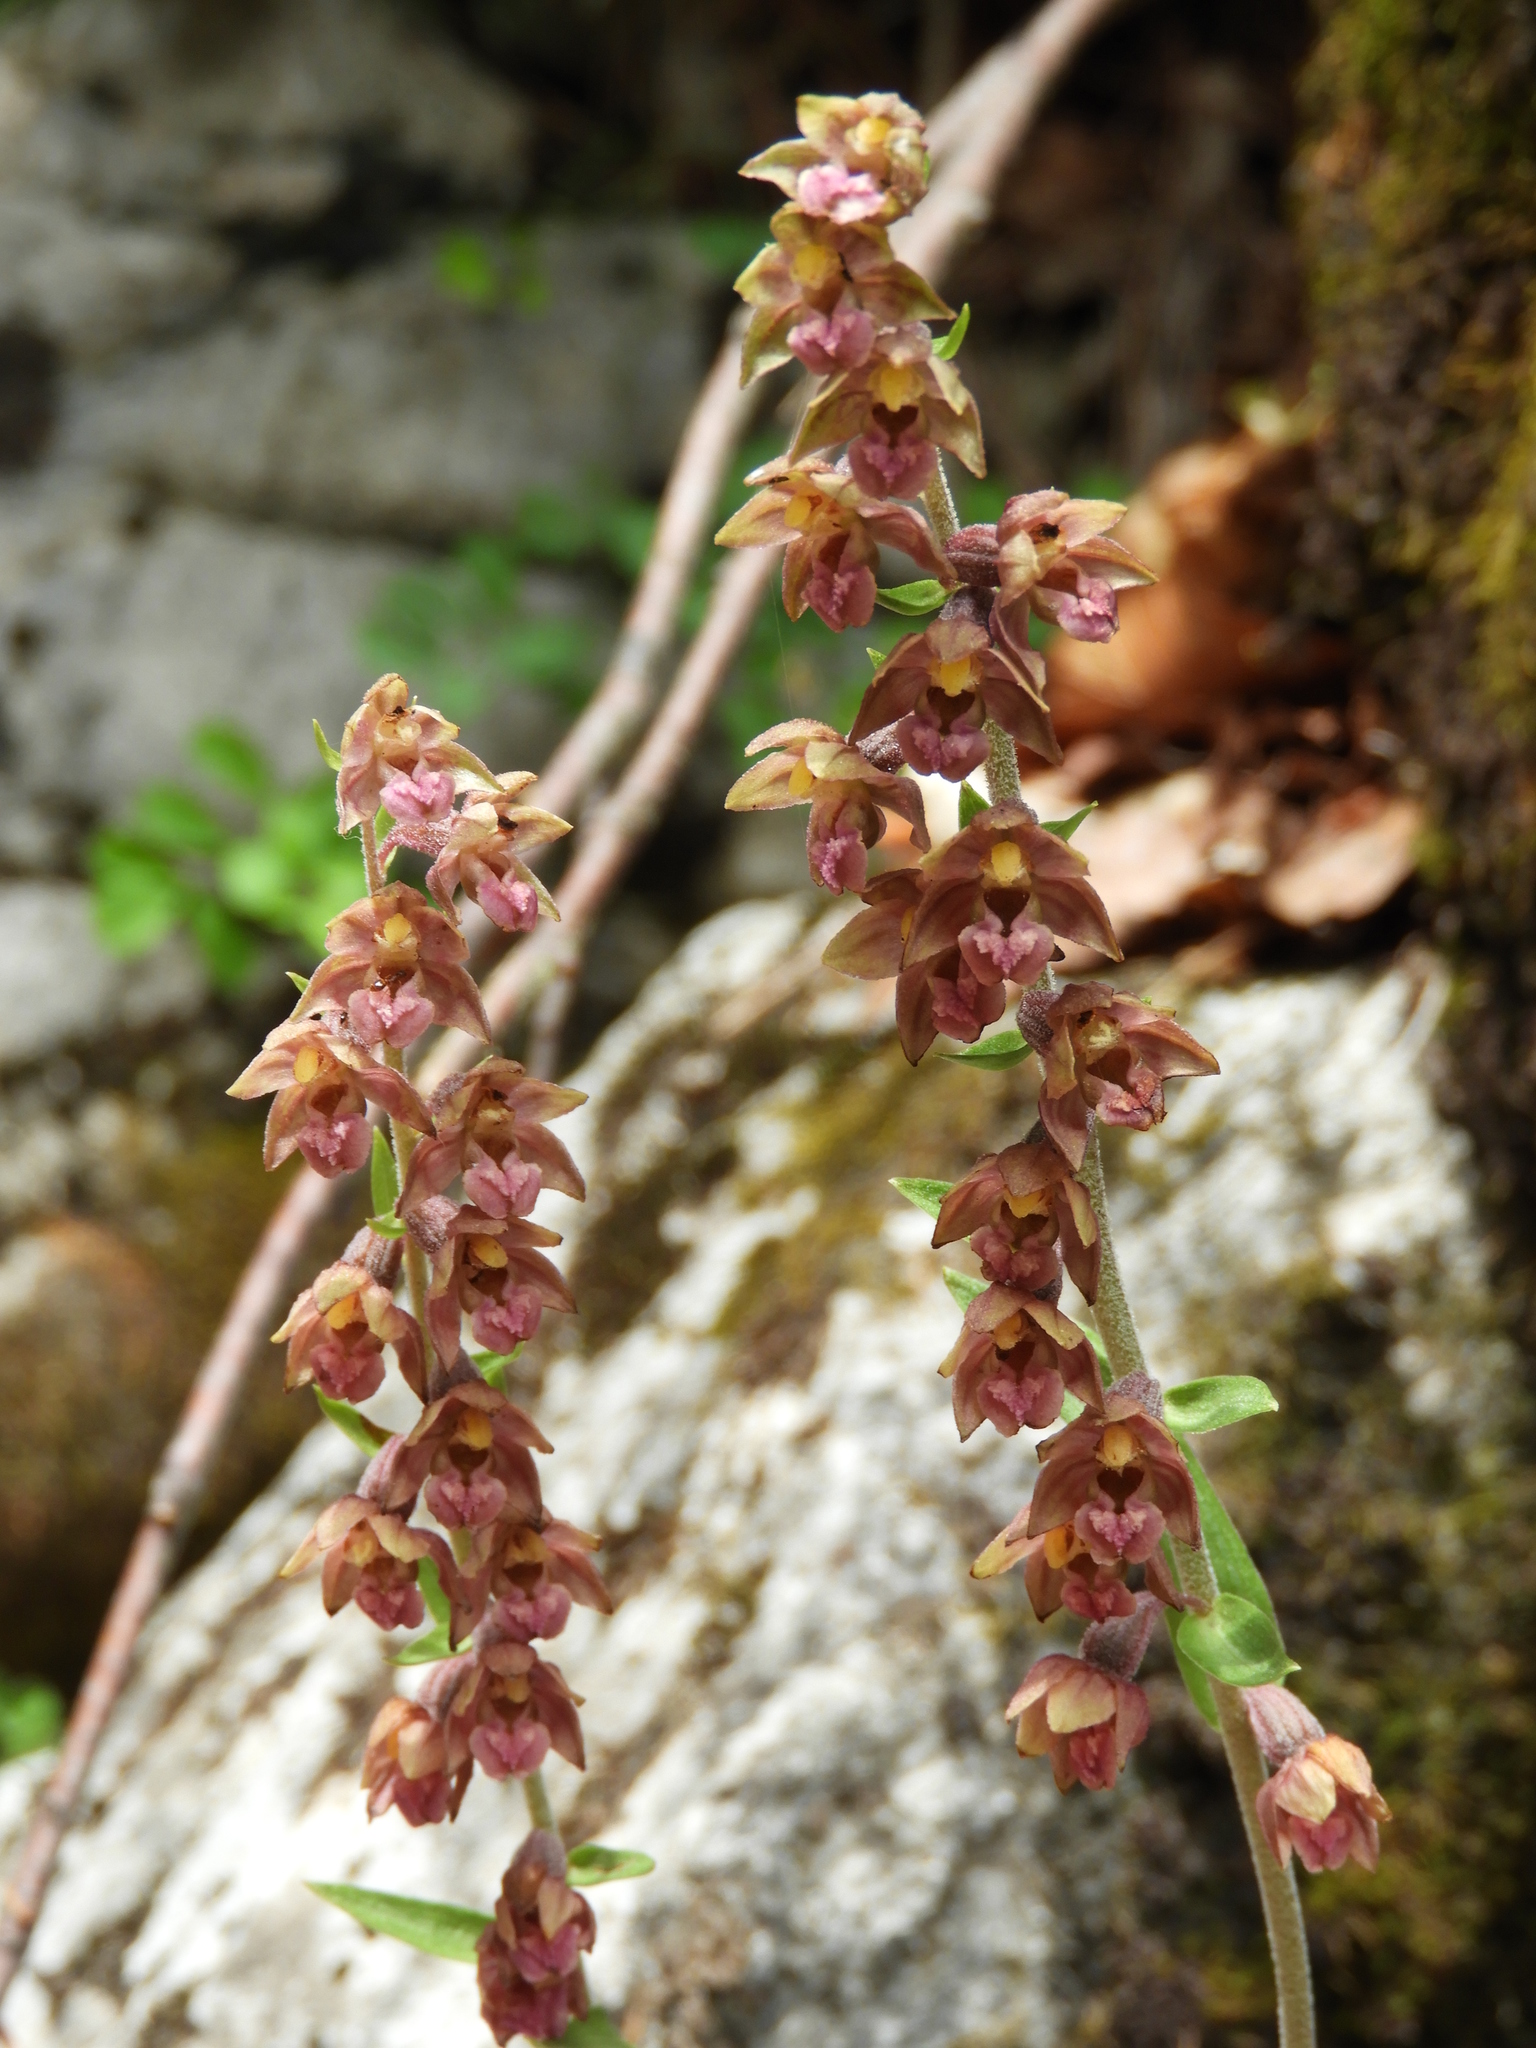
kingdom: Plantae
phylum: Tracheophyta
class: Liliopsida
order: Asparagales
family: Orchidaceae
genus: Epipactis
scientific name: Epipactis atrorubens
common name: Dark-red helleborine
